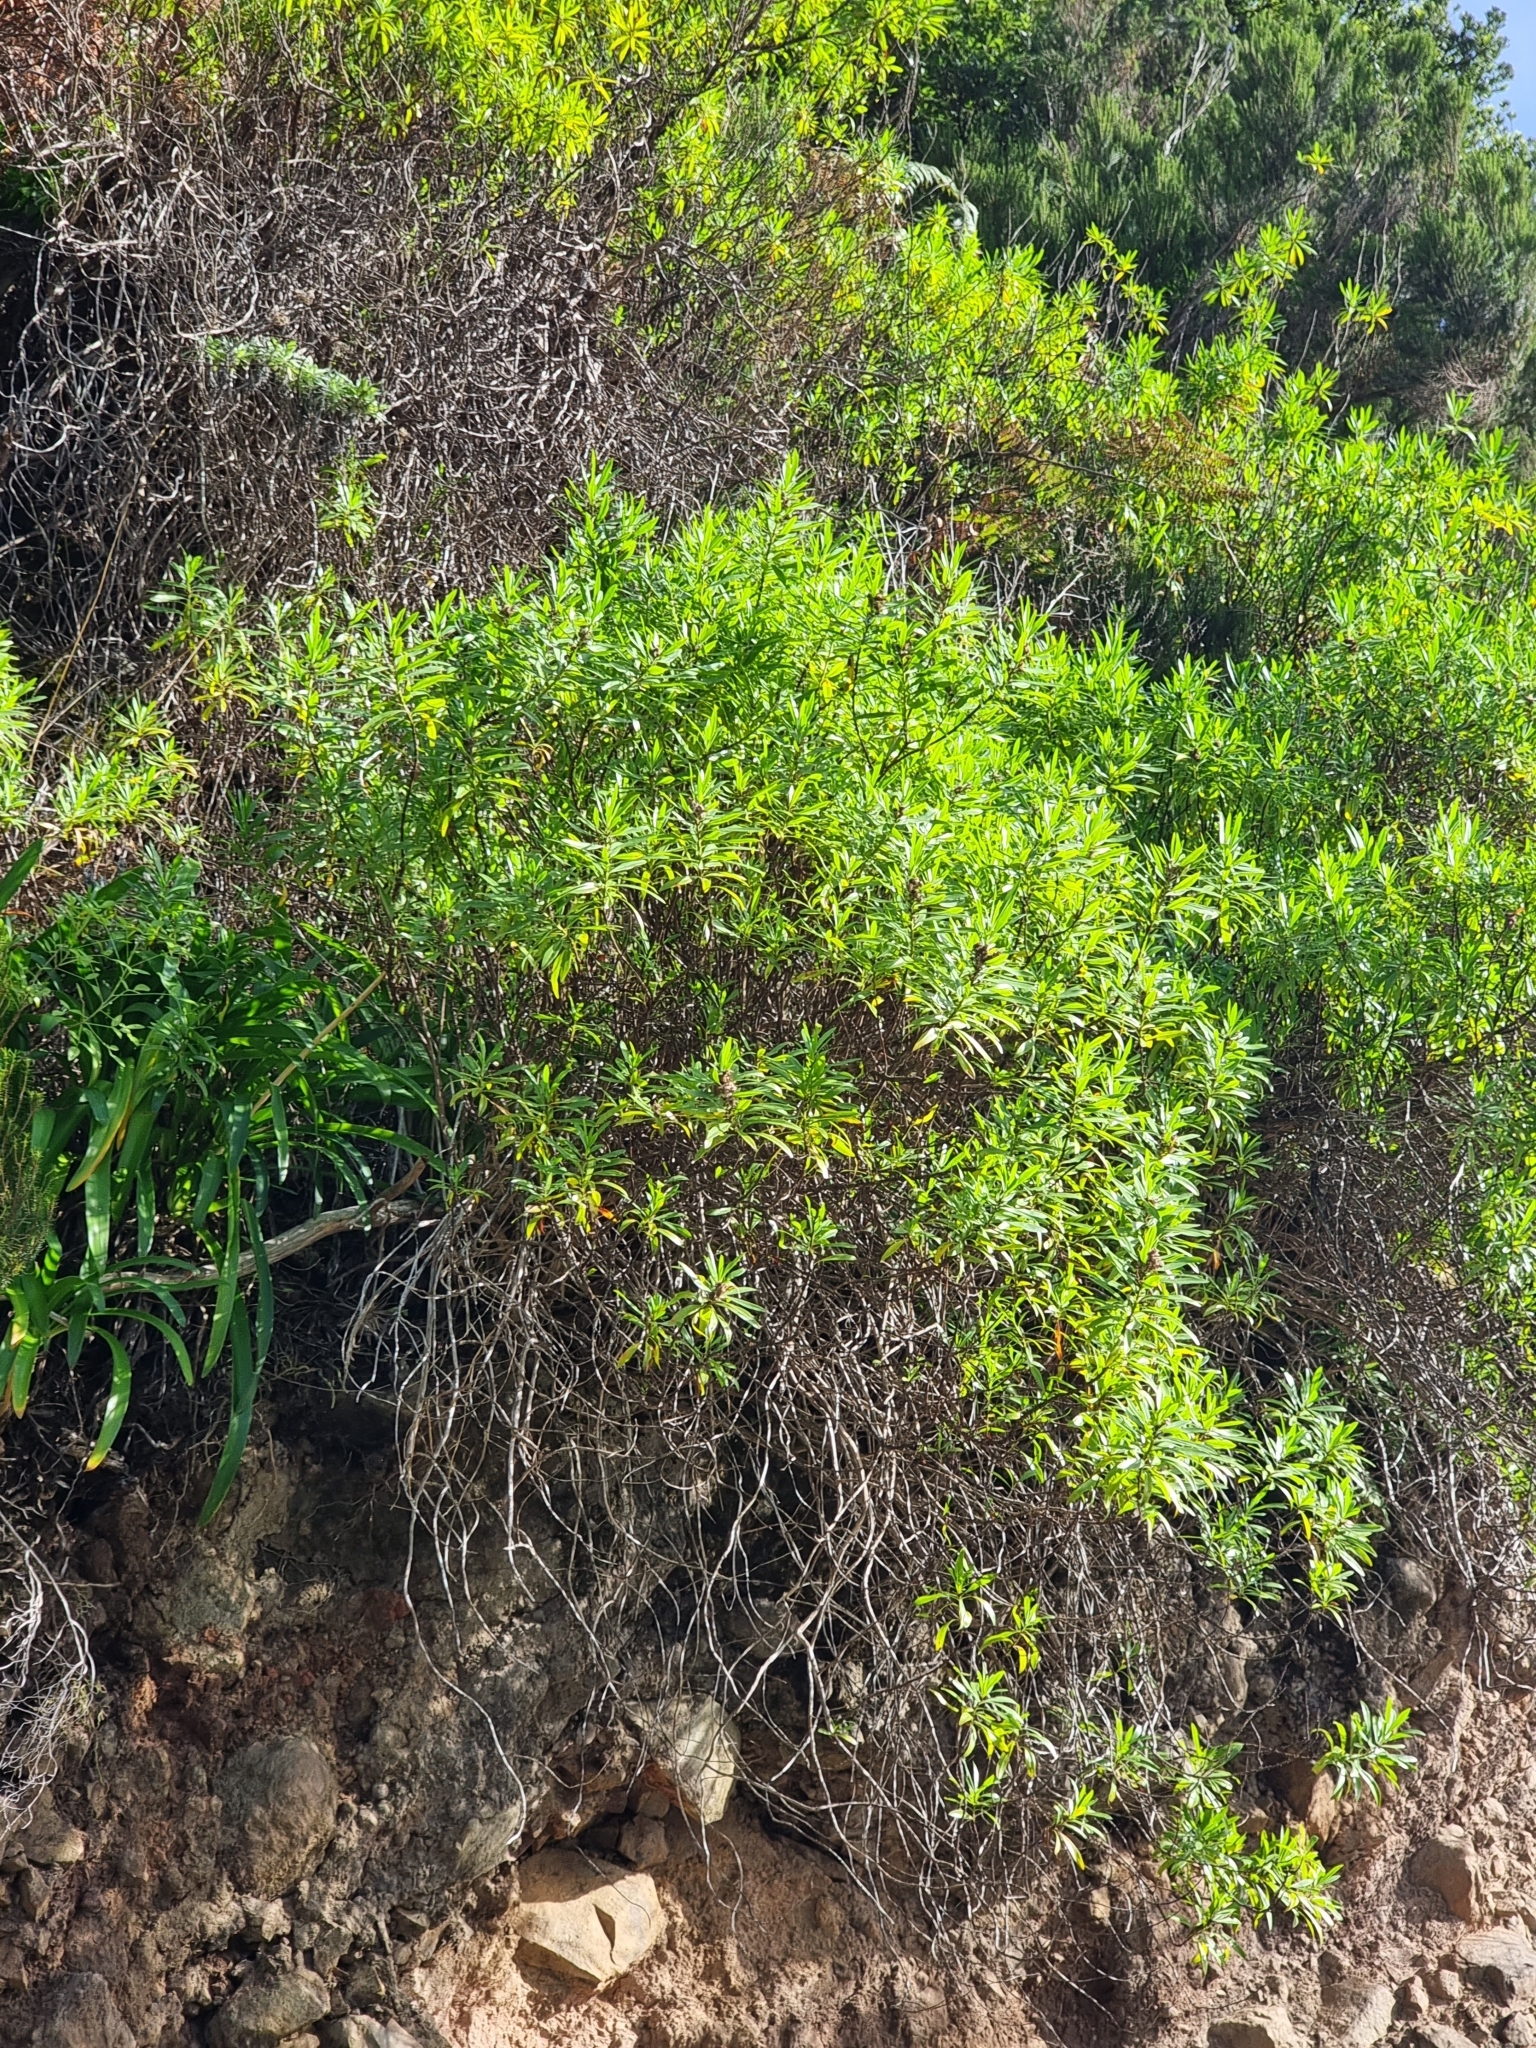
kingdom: Plantae
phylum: Tracheophyta
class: Magnoliopsida
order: Lamiales
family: Plantaginaceae
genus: Globularia
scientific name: Globularia salicina
